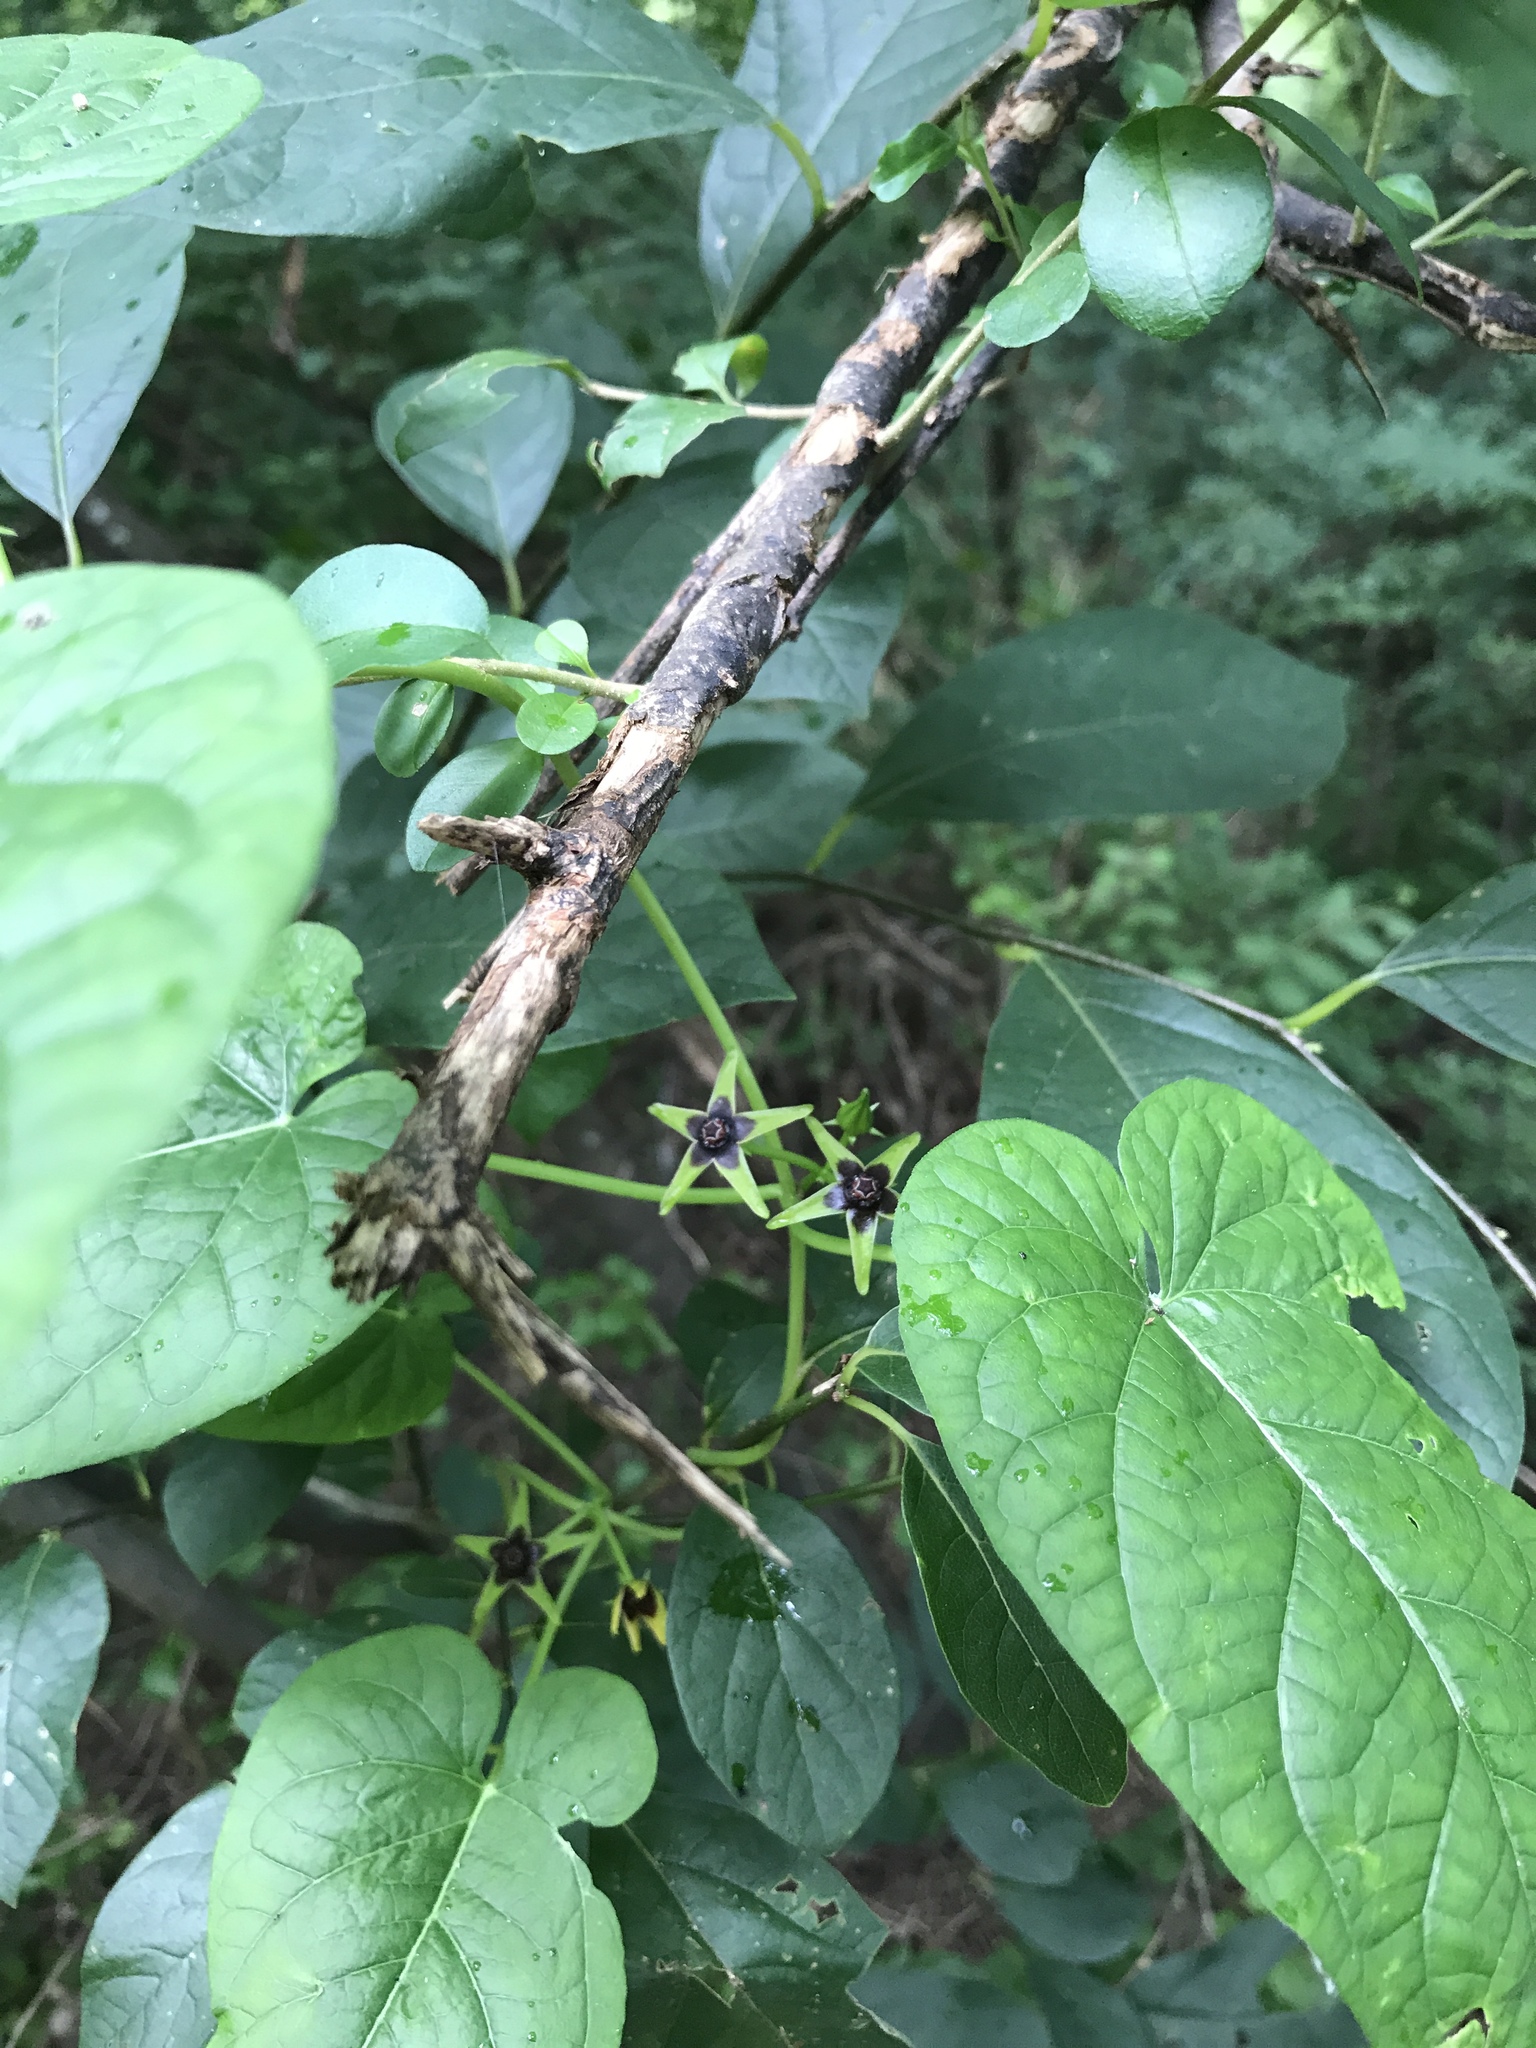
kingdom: Plantae
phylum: Tracheophyta
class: Magnoliopsida
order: Gentianales
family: Apocynaceae
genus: Gonolobus
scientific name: Gonolobus suberosus
